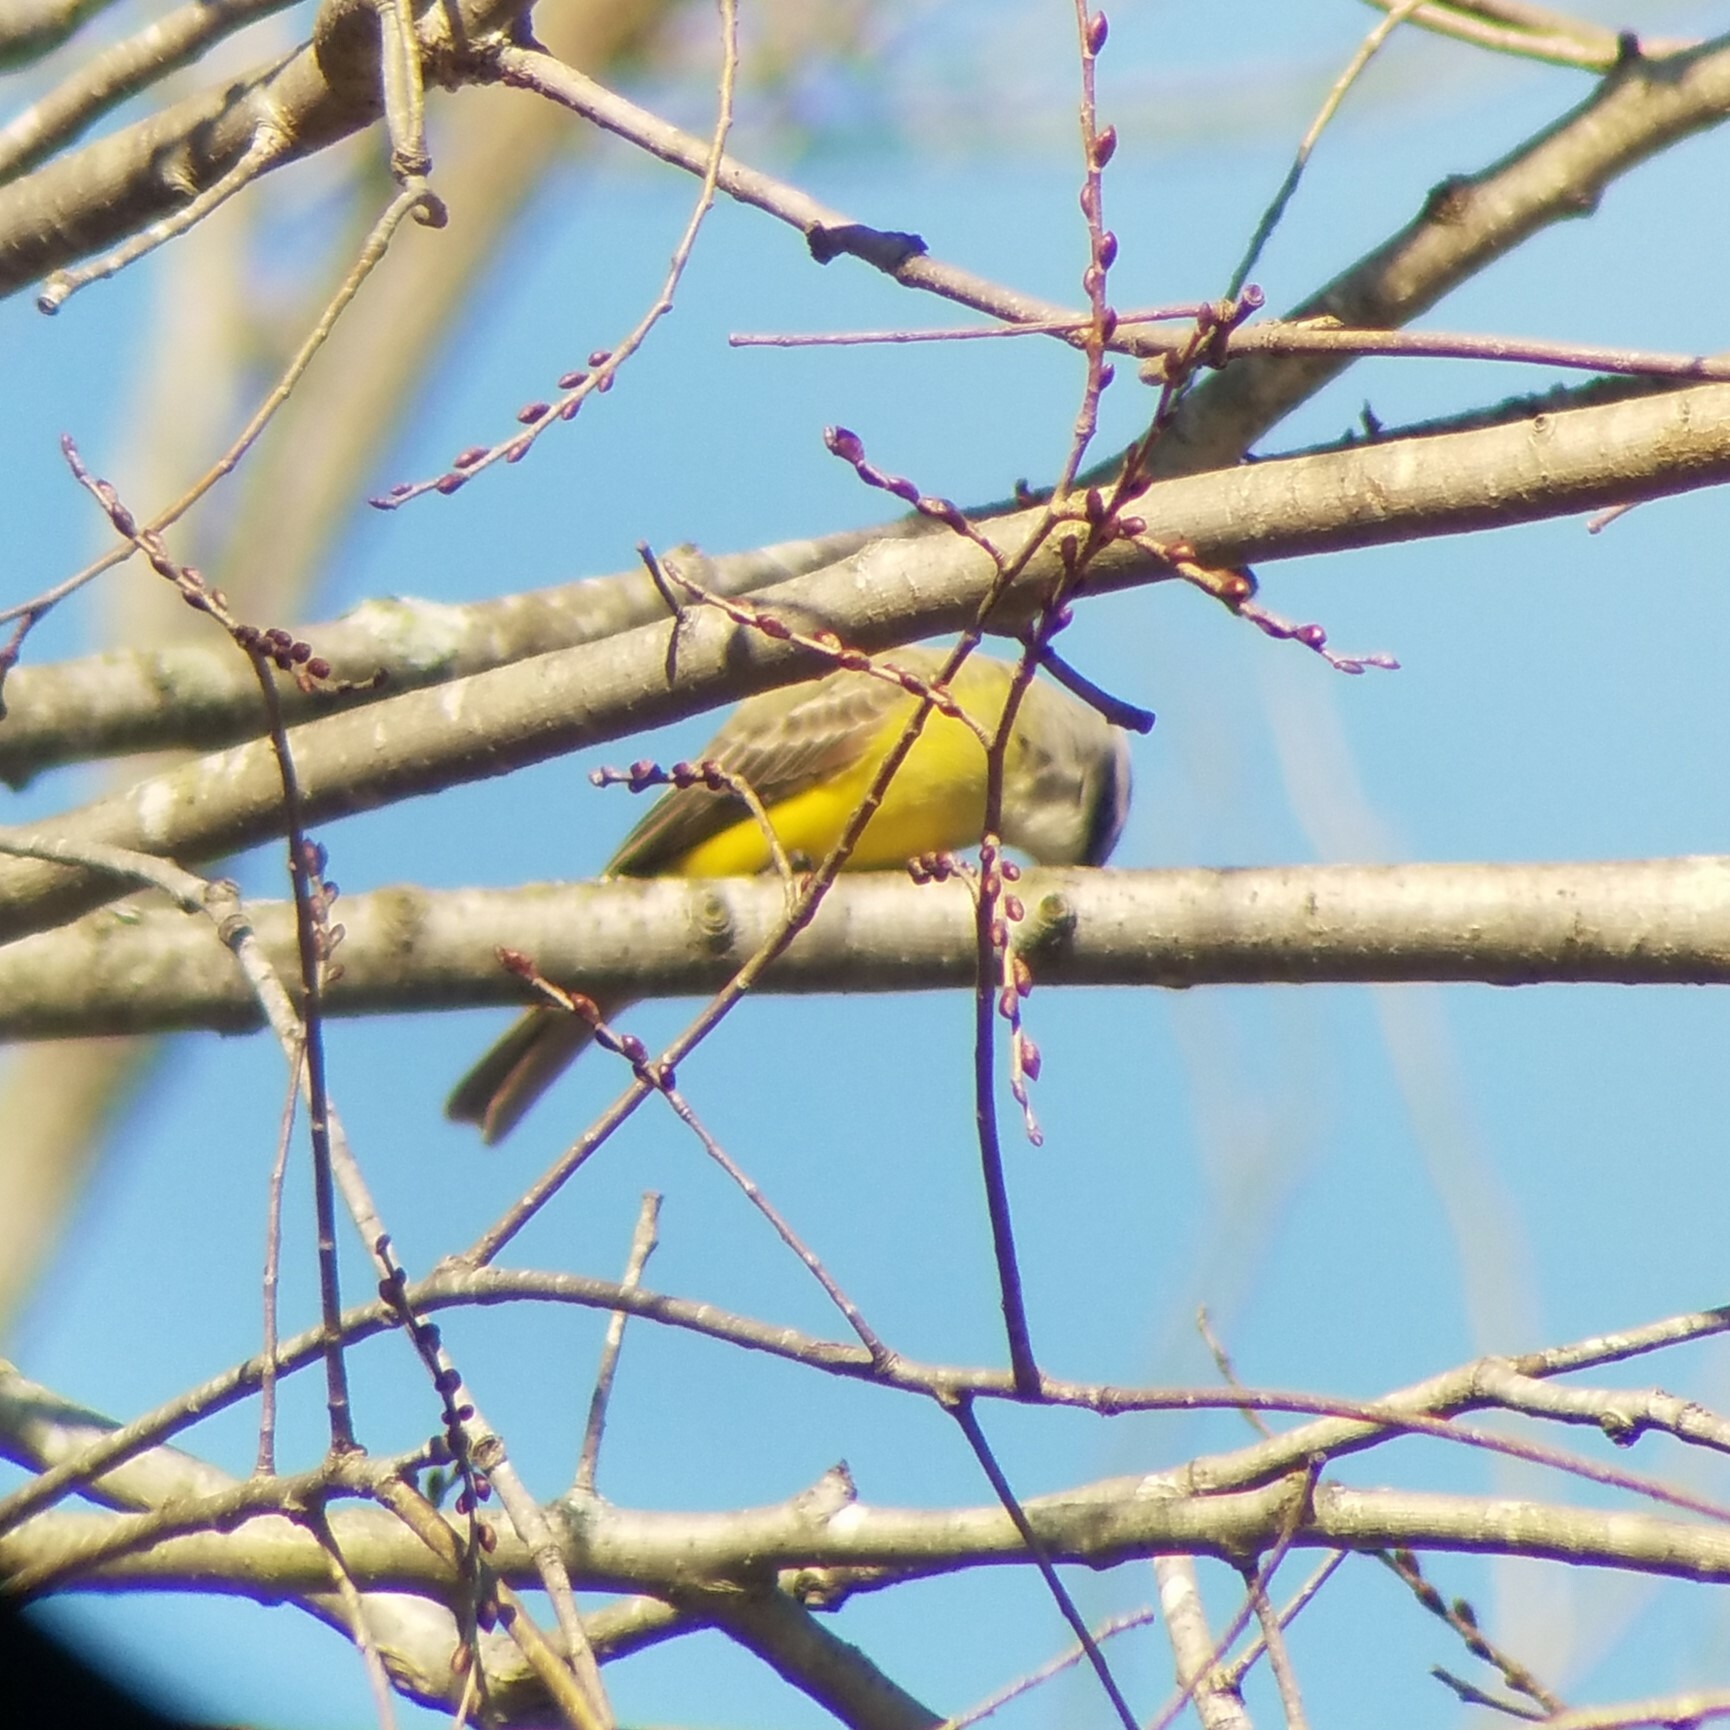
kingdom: Animalia
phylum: Chordata
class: Aves
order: Passeriformes
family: Tyrannidae
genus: Tyrannus
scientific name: Tyrannus couchii
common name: Couch's kingbird
